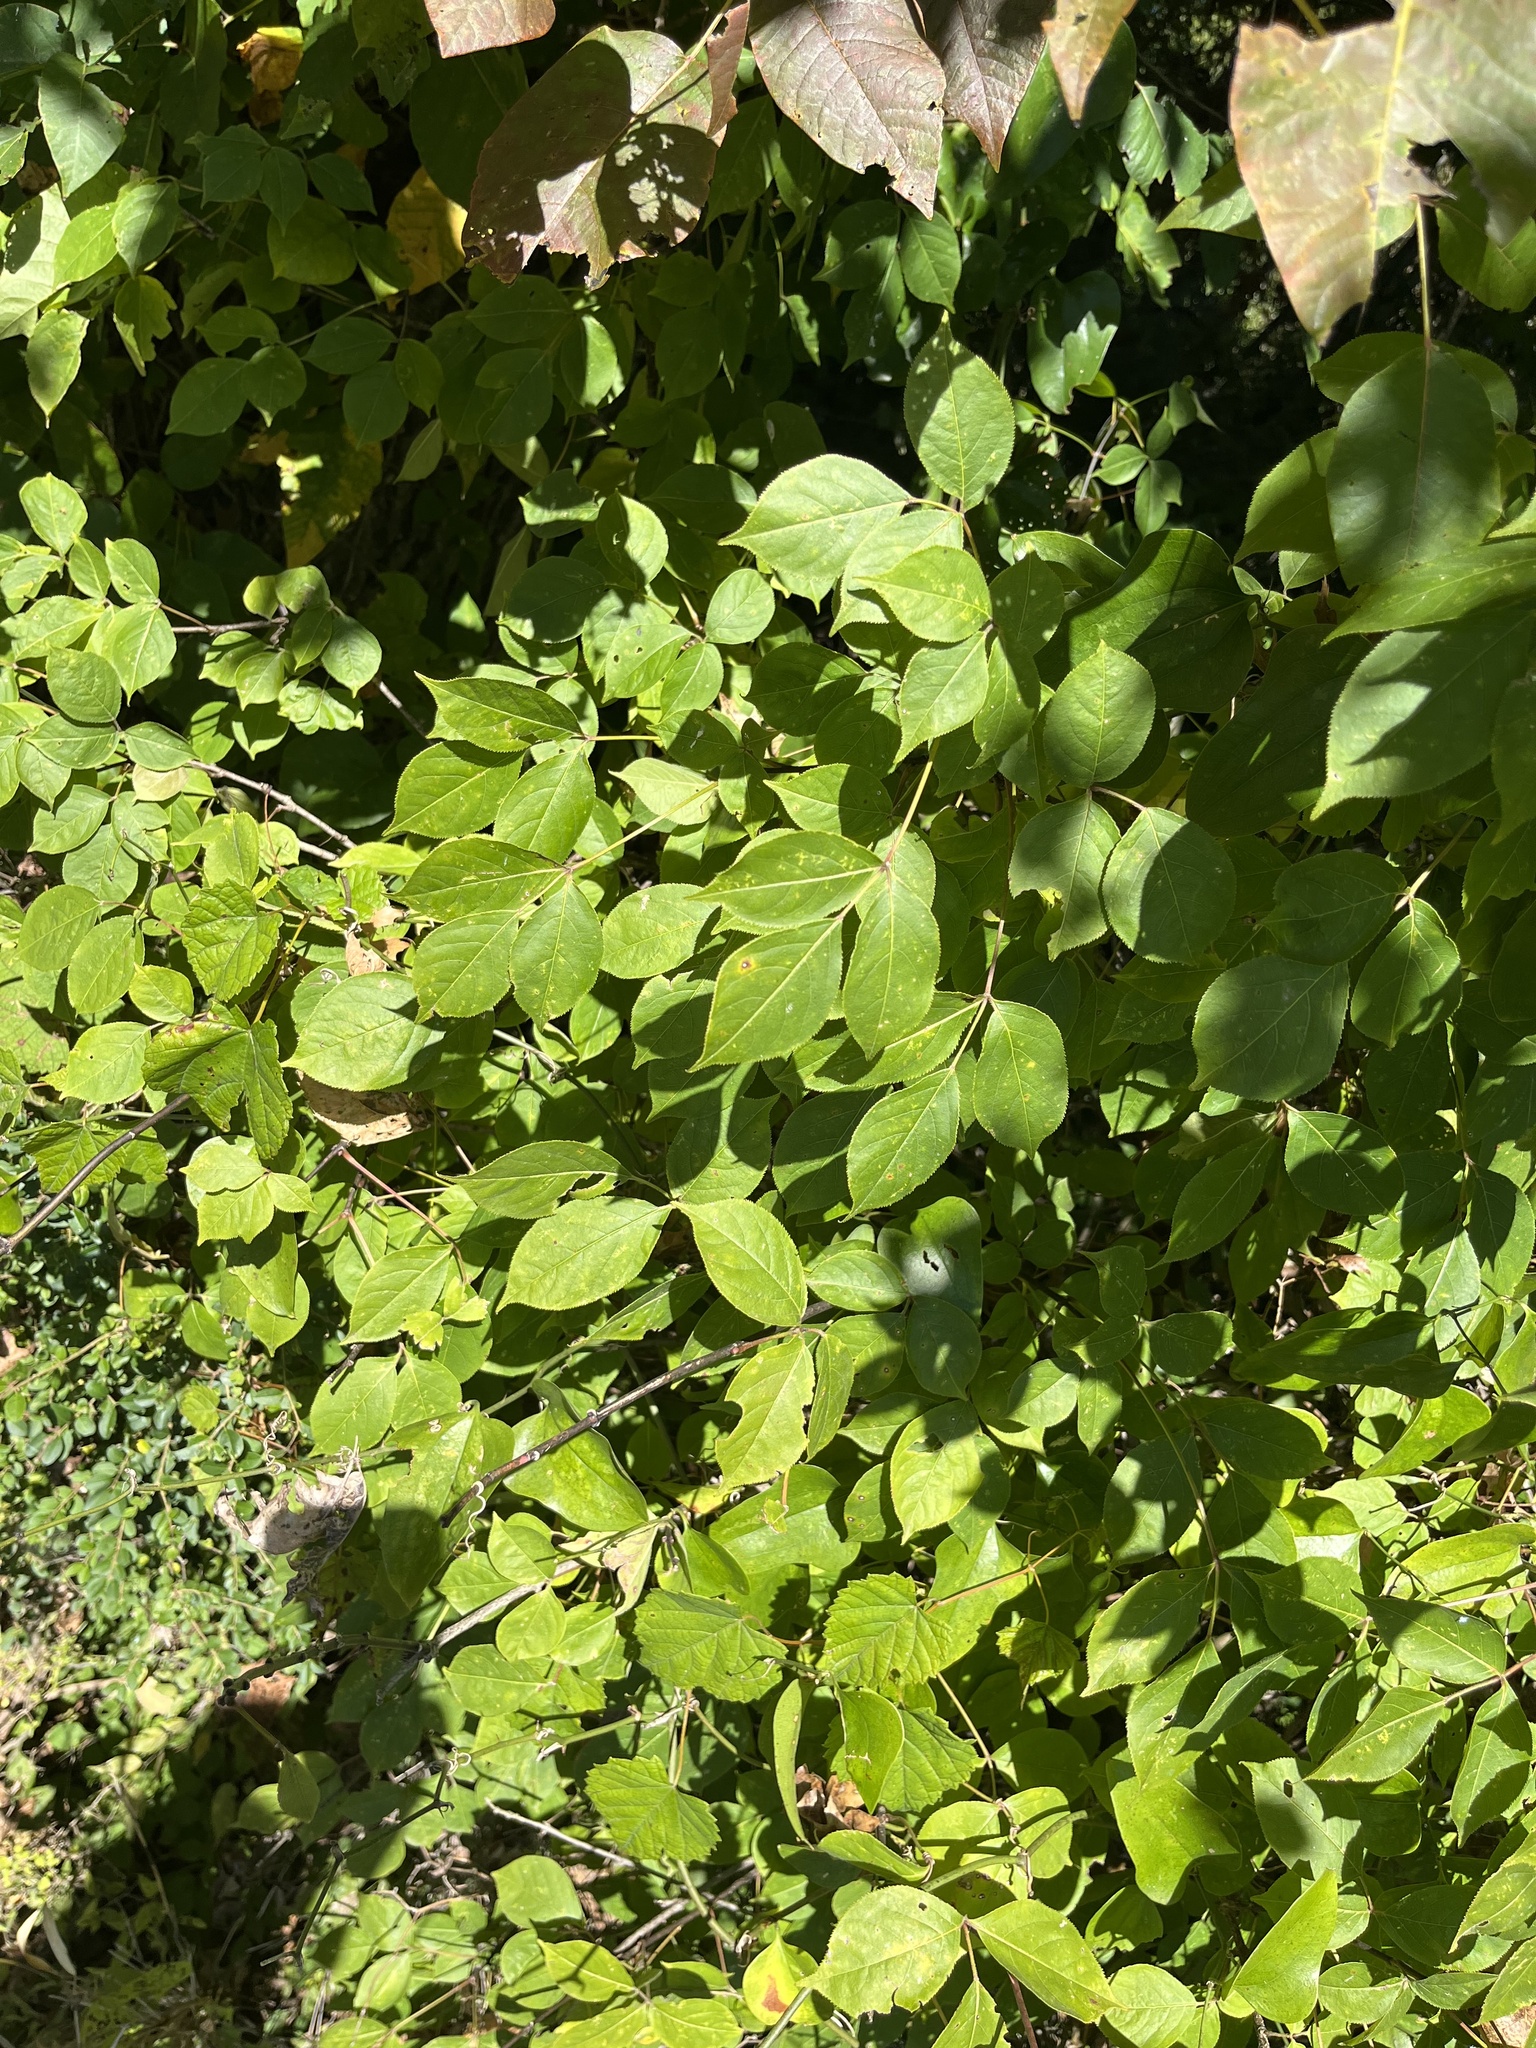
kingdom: Plantae
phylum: Tracheophyta
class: Magnoliopsida
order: Crossosomatales
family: Staphyleaceae
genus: Staphylea
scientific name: Staphylea trifolia
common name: American bladdernut
